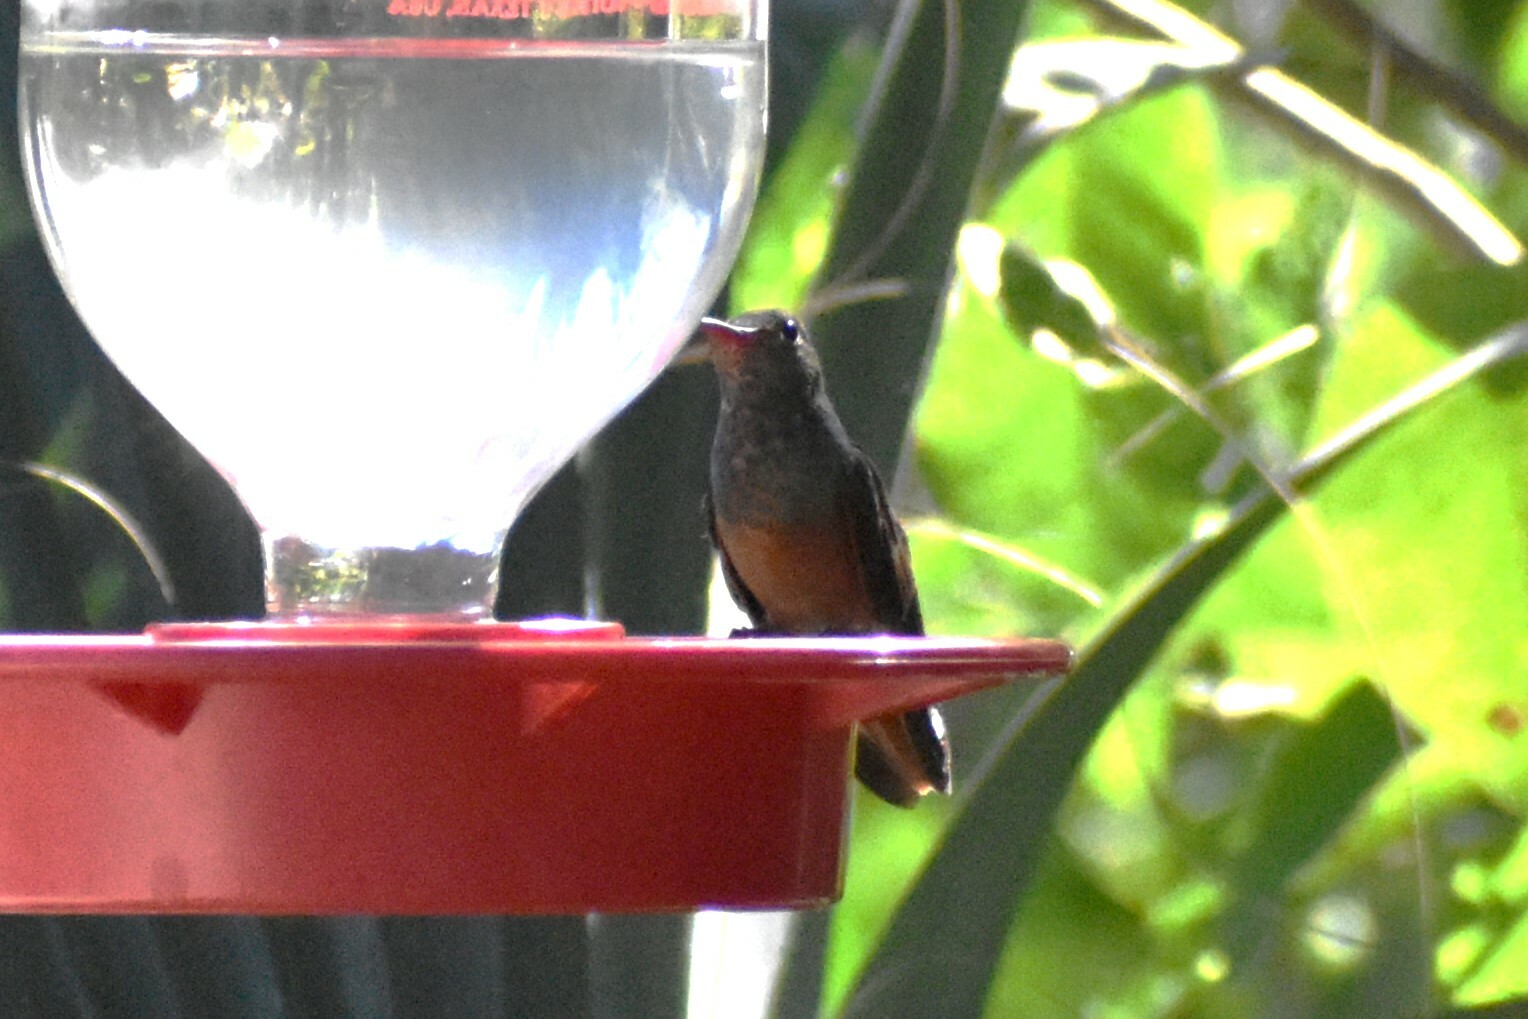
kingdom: Animalia
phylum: Chordata
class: Aves
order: Apodiformes
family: Trochilidae
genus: Amazilia
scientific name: Amazilia yucatanensis
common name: Buff-bellied hummingbird
